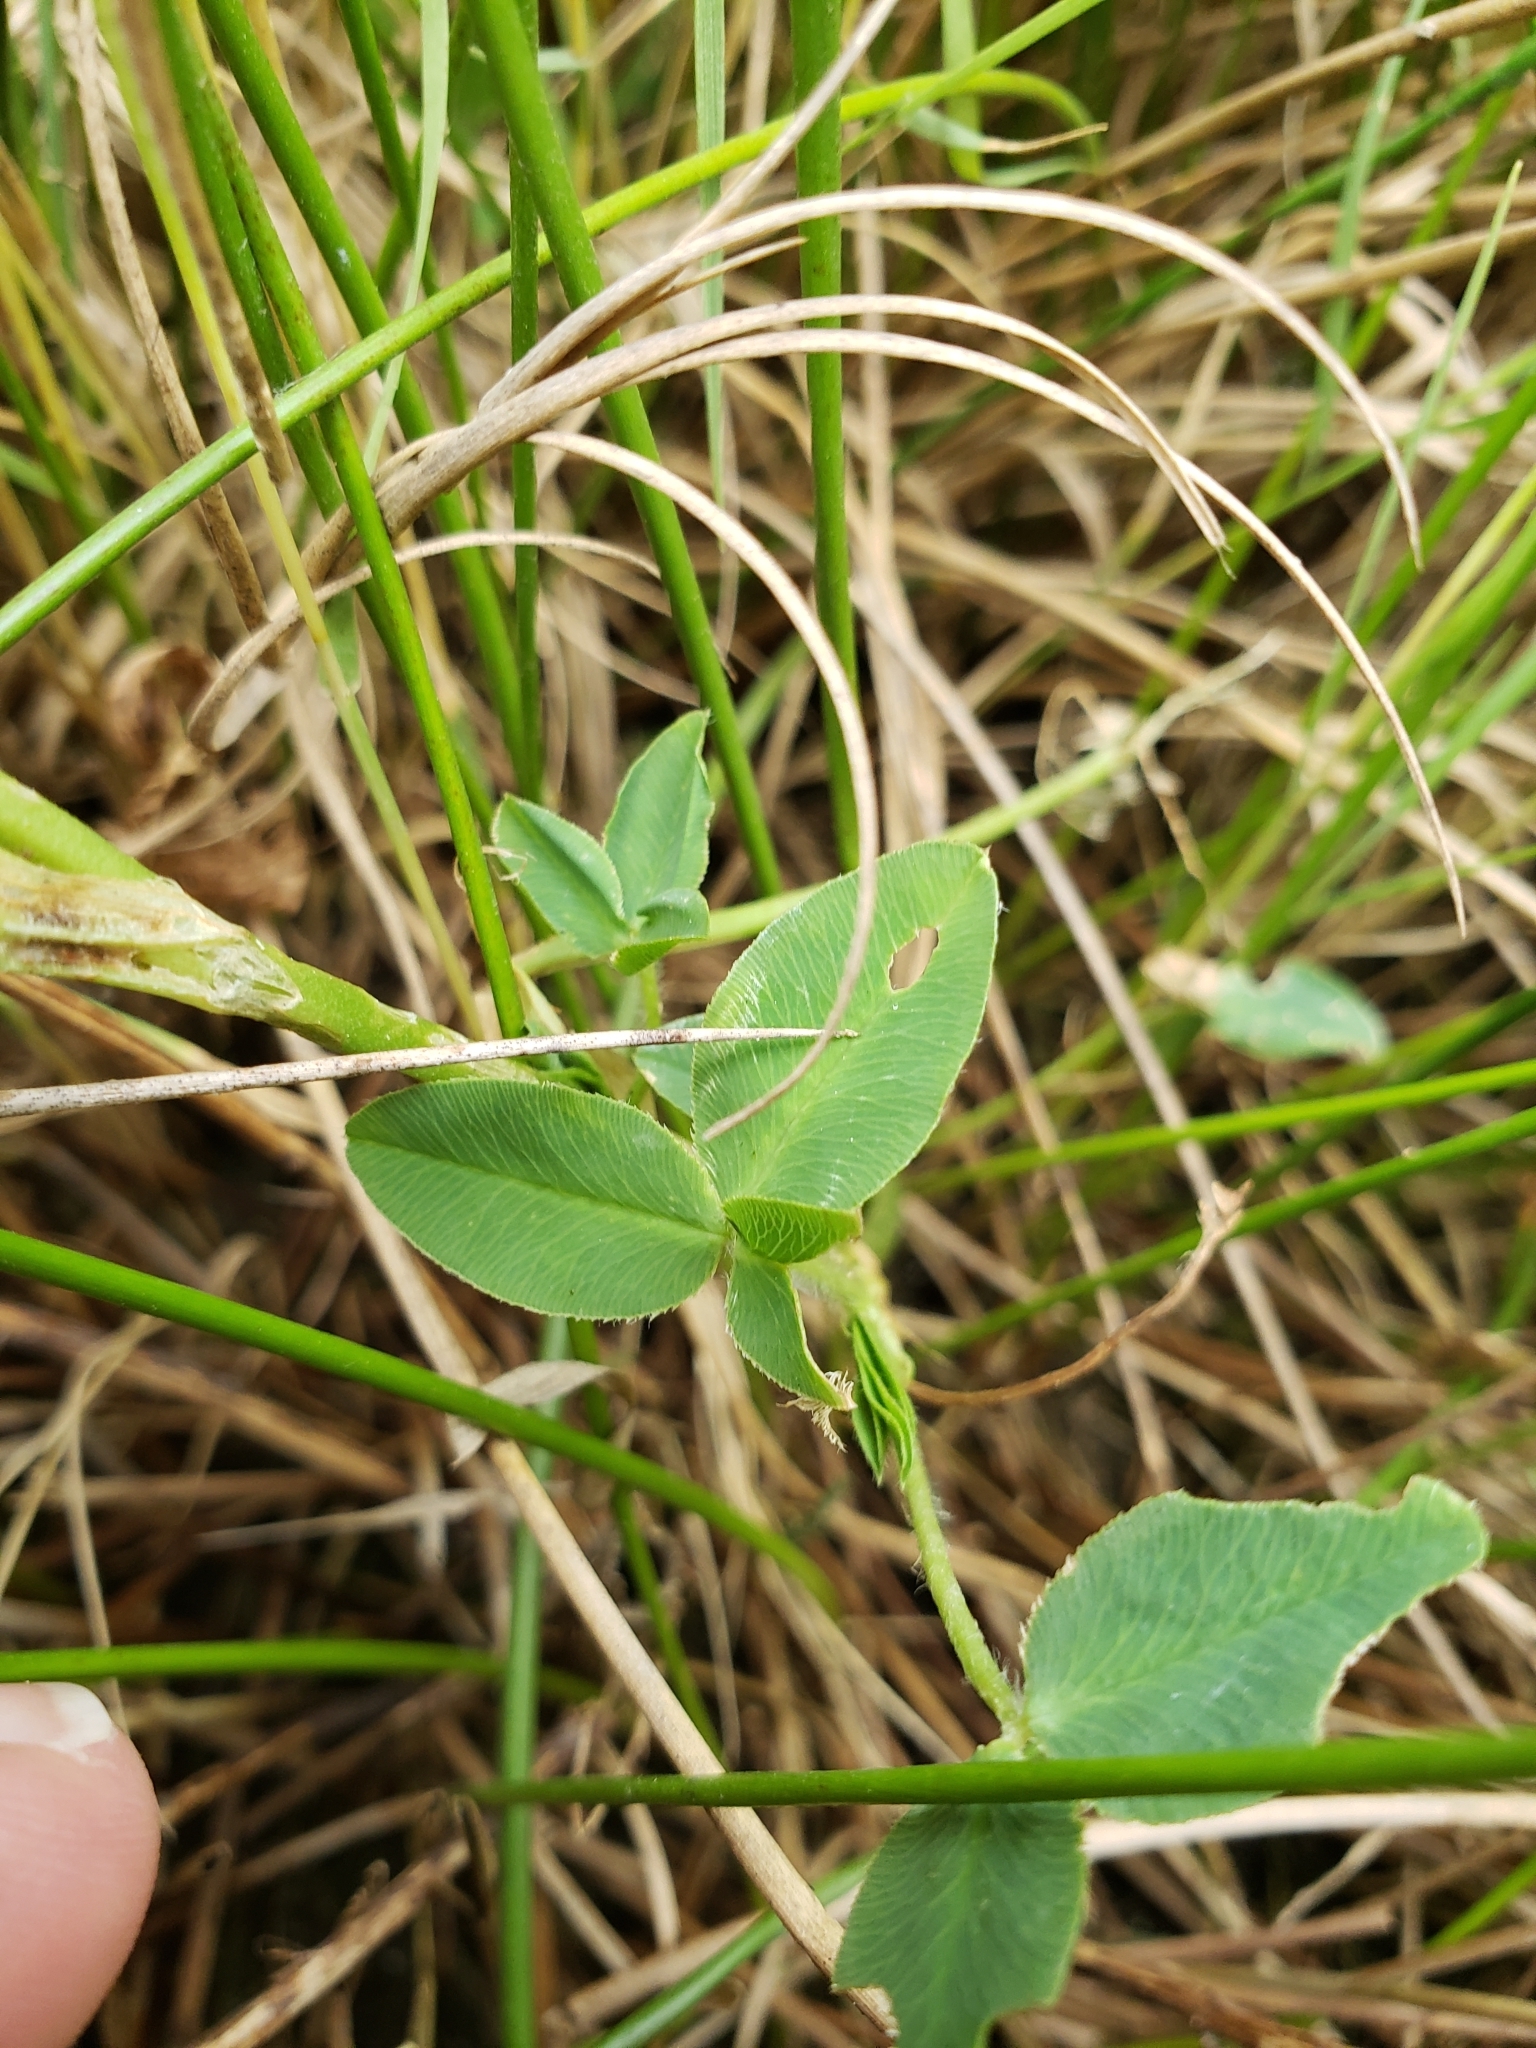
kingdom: Plantae
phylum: Tracheophyta
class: Magnoliopsida
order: Fabales
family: Fabaceae
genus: Trifolium
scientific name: Trifolium fragiferum
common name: Strawberry clover
